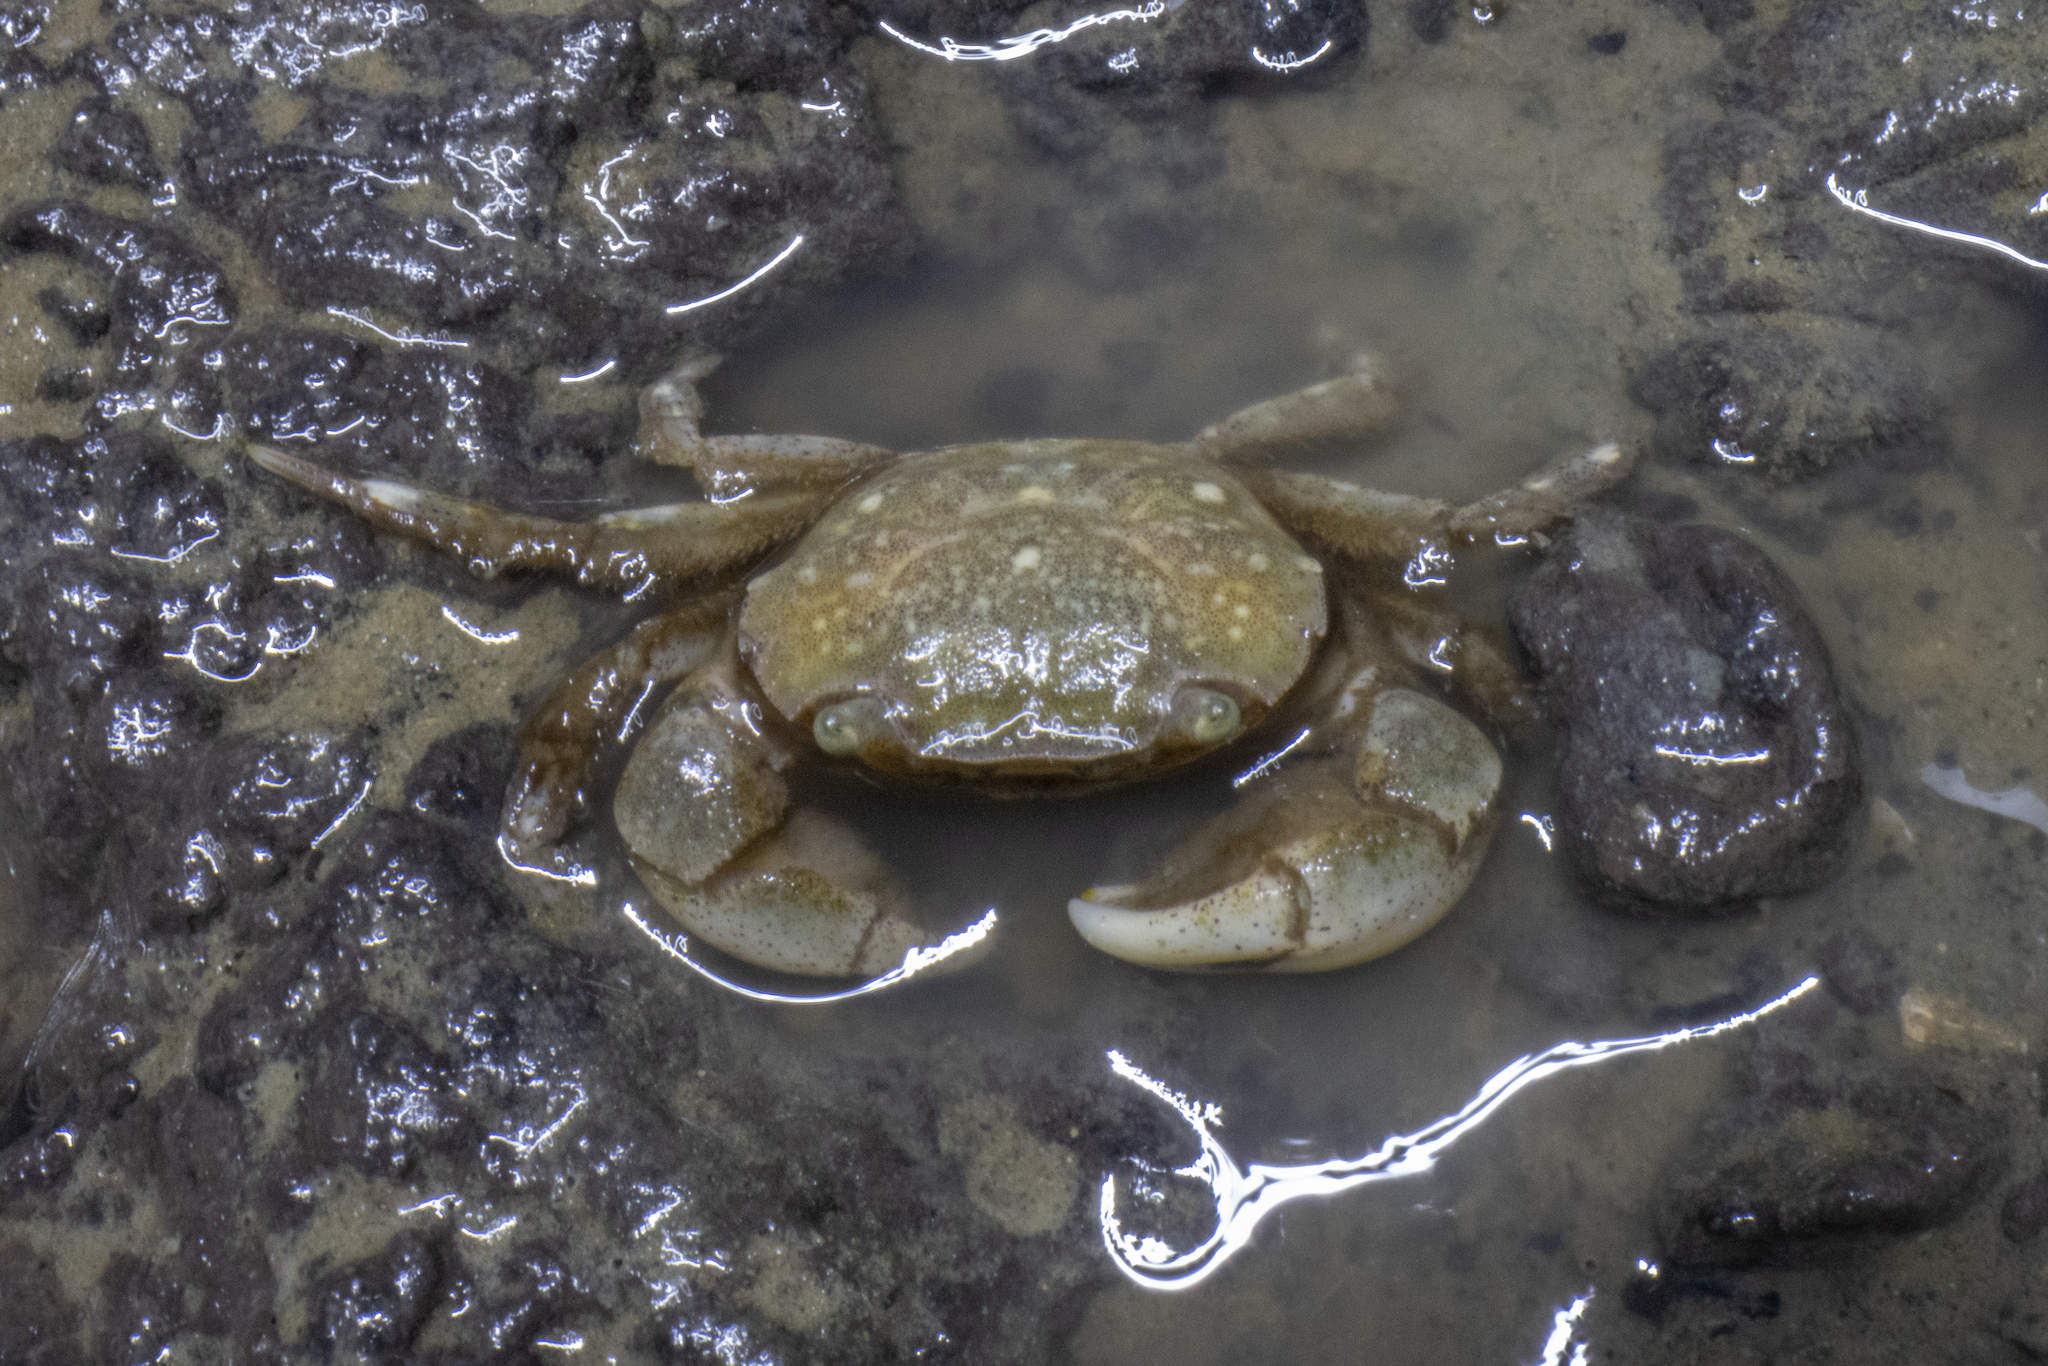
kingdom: Animalia
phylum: Arthropoda
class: Malacostraca
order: Decapoda
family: Varunidae
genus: Hemigrapsus
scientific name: Hemigrapsus crenulatus
